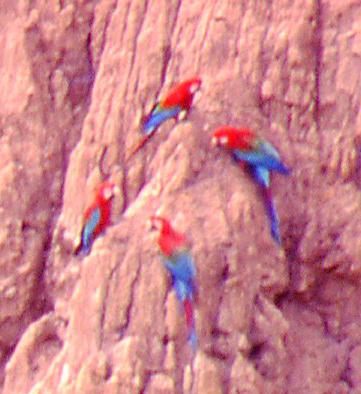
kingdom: Animalia
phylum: Chordata
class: Aves
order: Psittaciformes
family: Psittacidae
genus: Ara
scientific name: Ara chloropterus
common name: Red-and-green macaw
